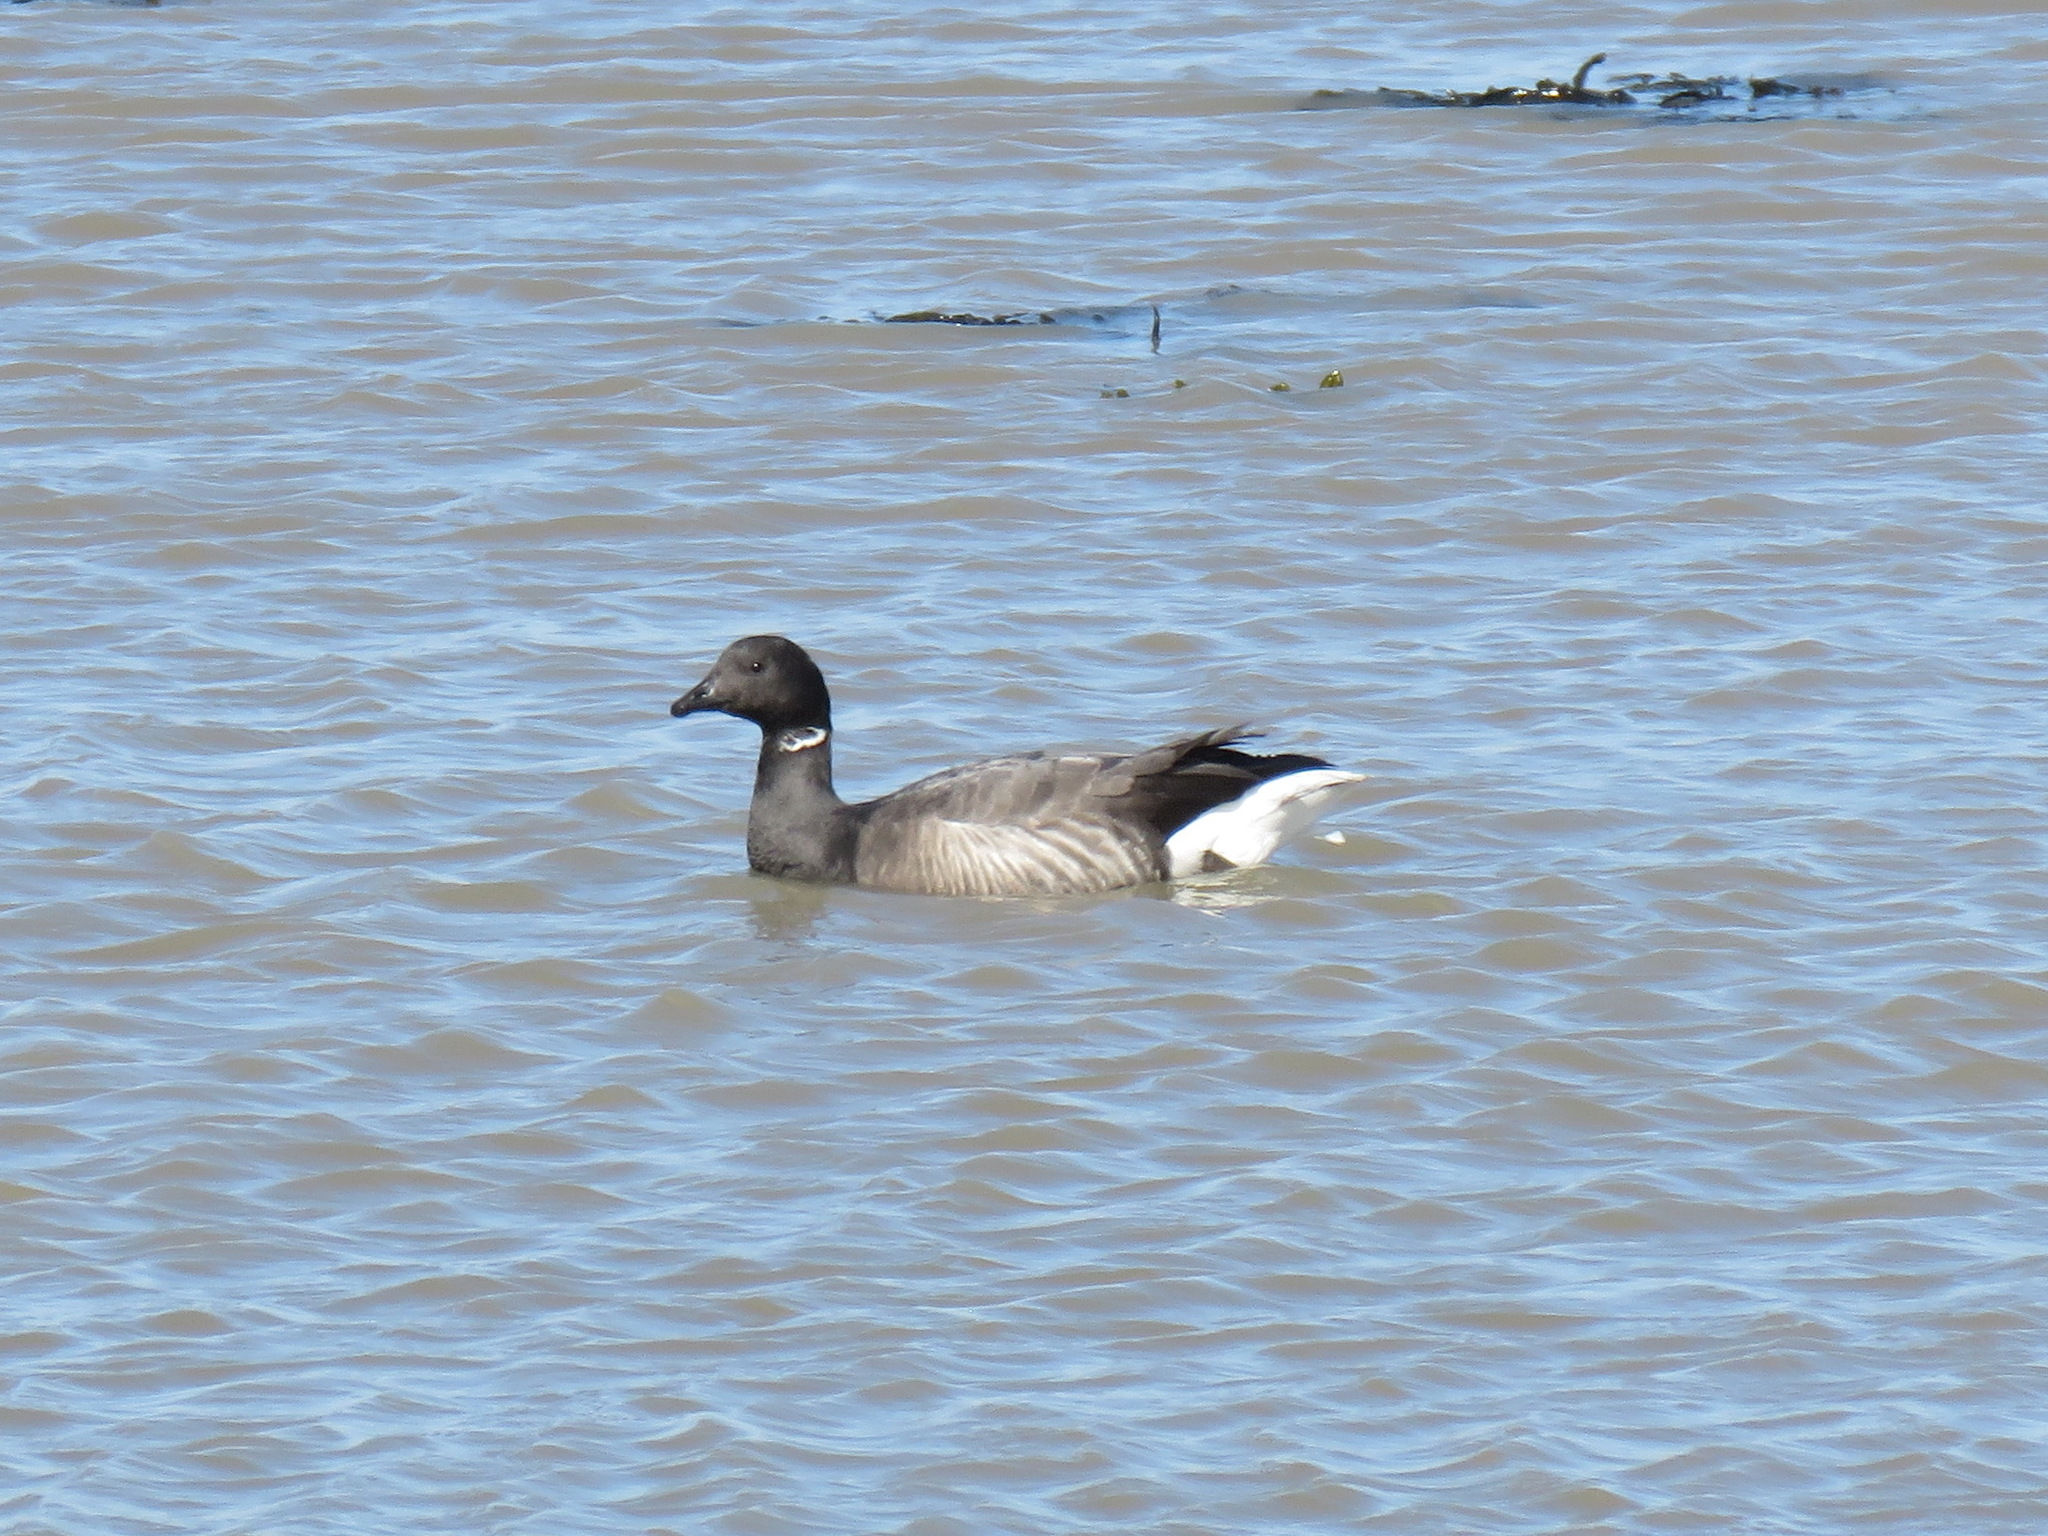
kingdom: Animalia
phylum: Chordata
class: Aves
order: Anseriformes
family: Anatidae
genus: Branta
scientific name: Branta bernicla
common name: Brant goose
